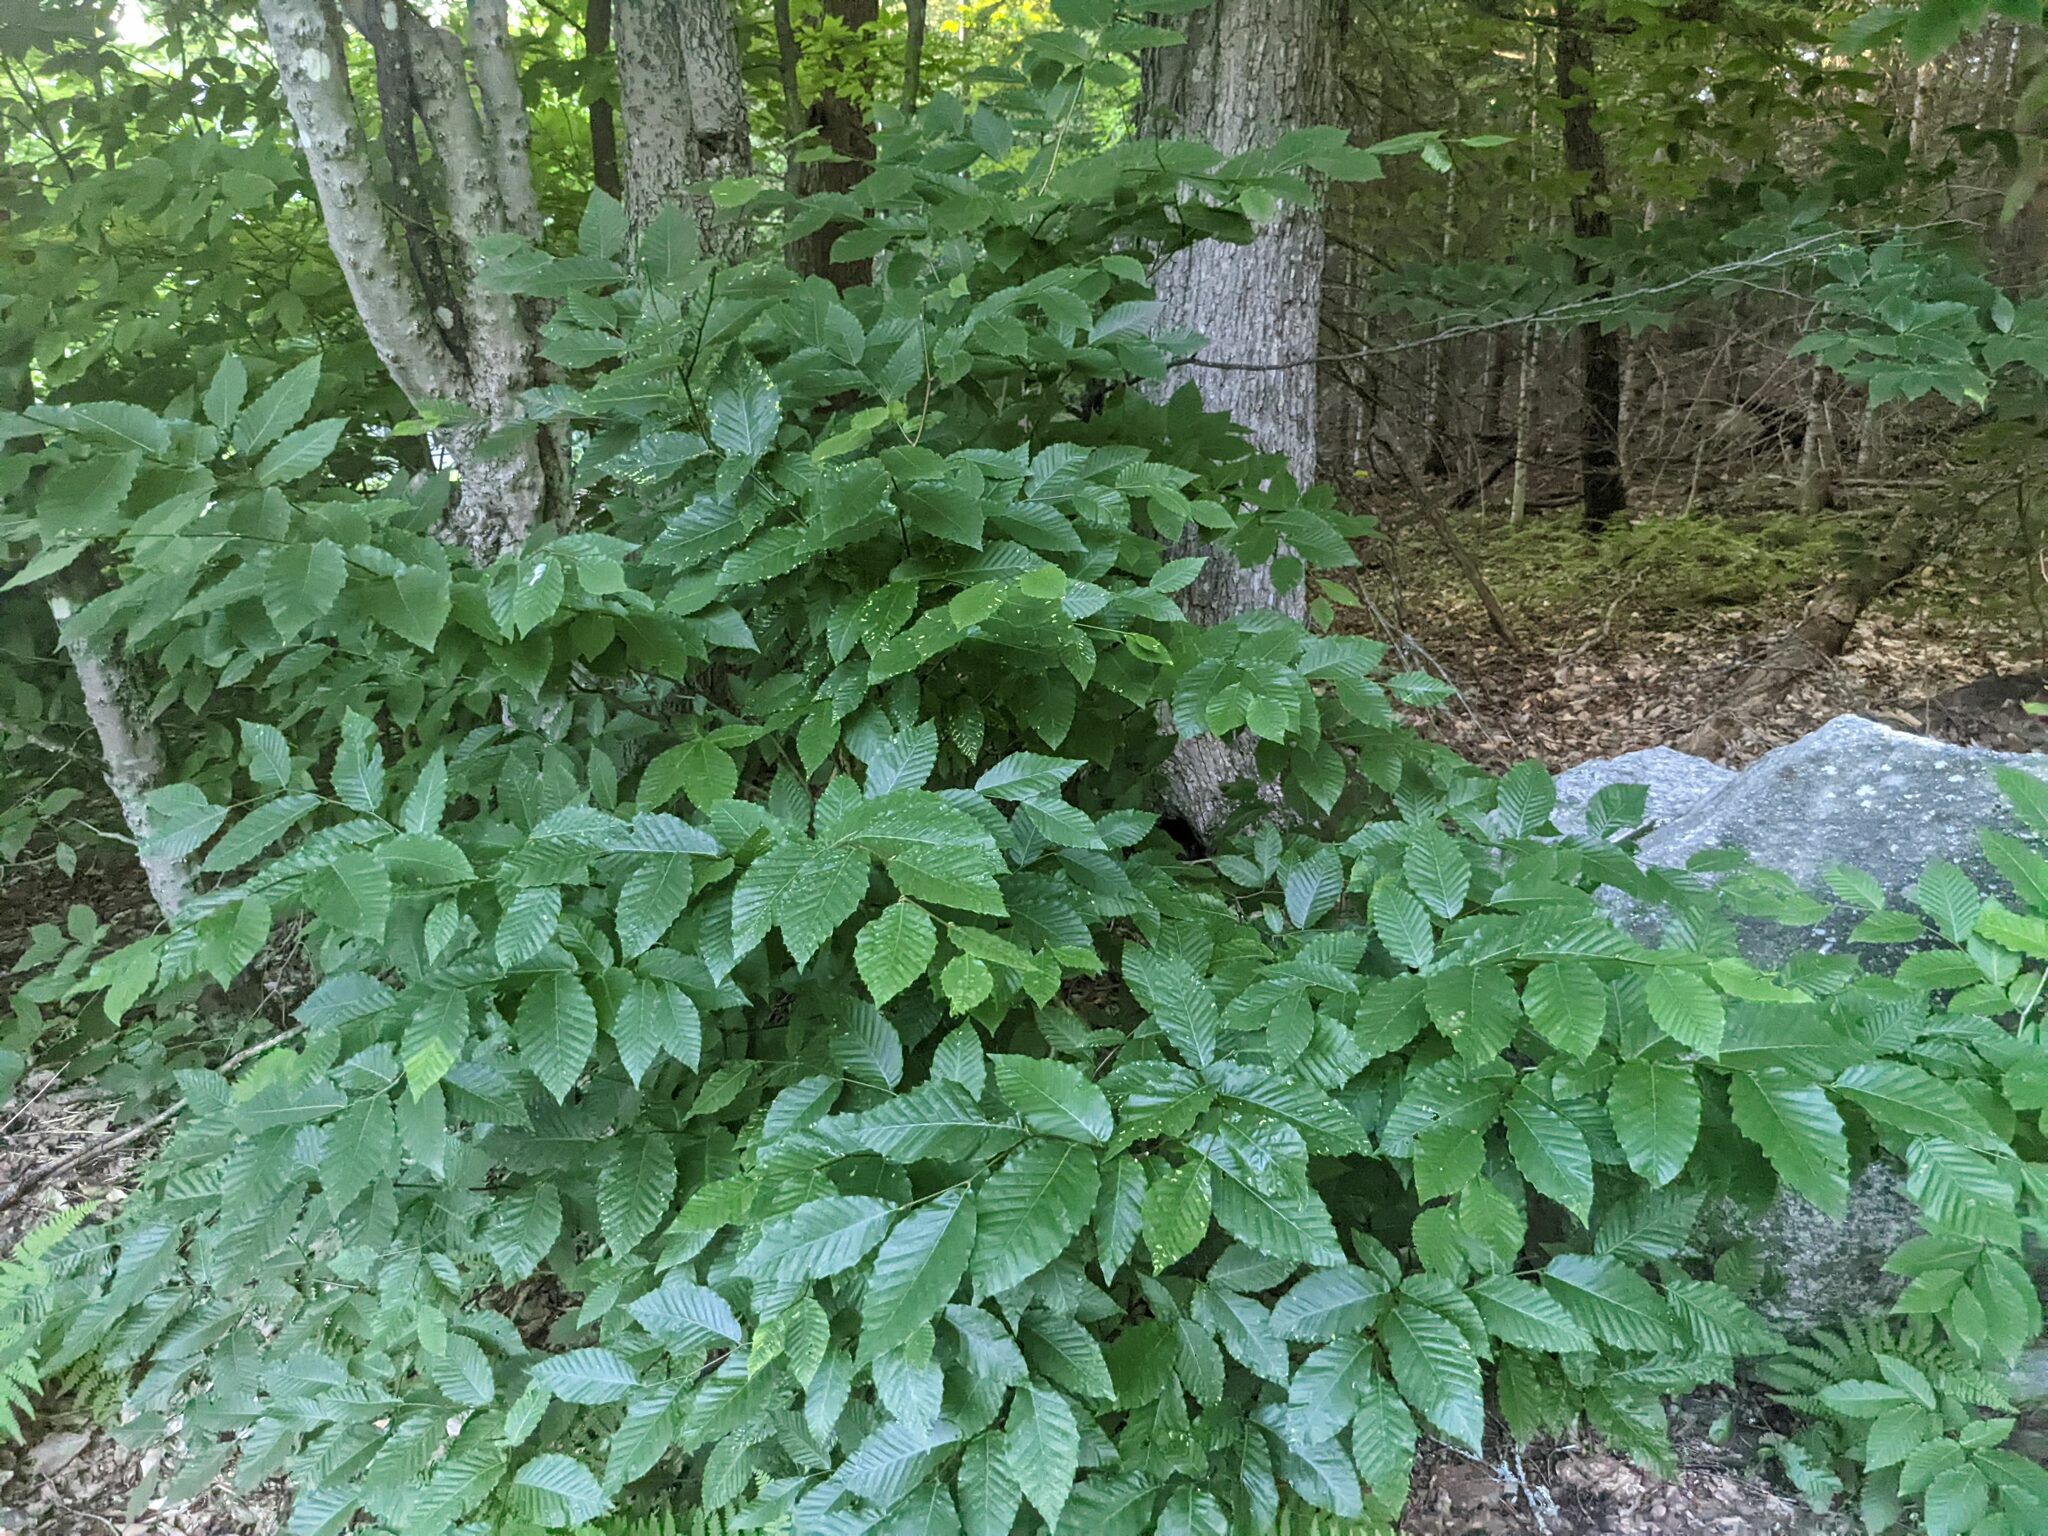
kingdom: Plantae
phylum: Tracheophyta
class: Magnoliopsida
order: Fagales
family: Fagaceae
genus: Fagus
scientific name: Fagus grandifolia
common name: American beech
